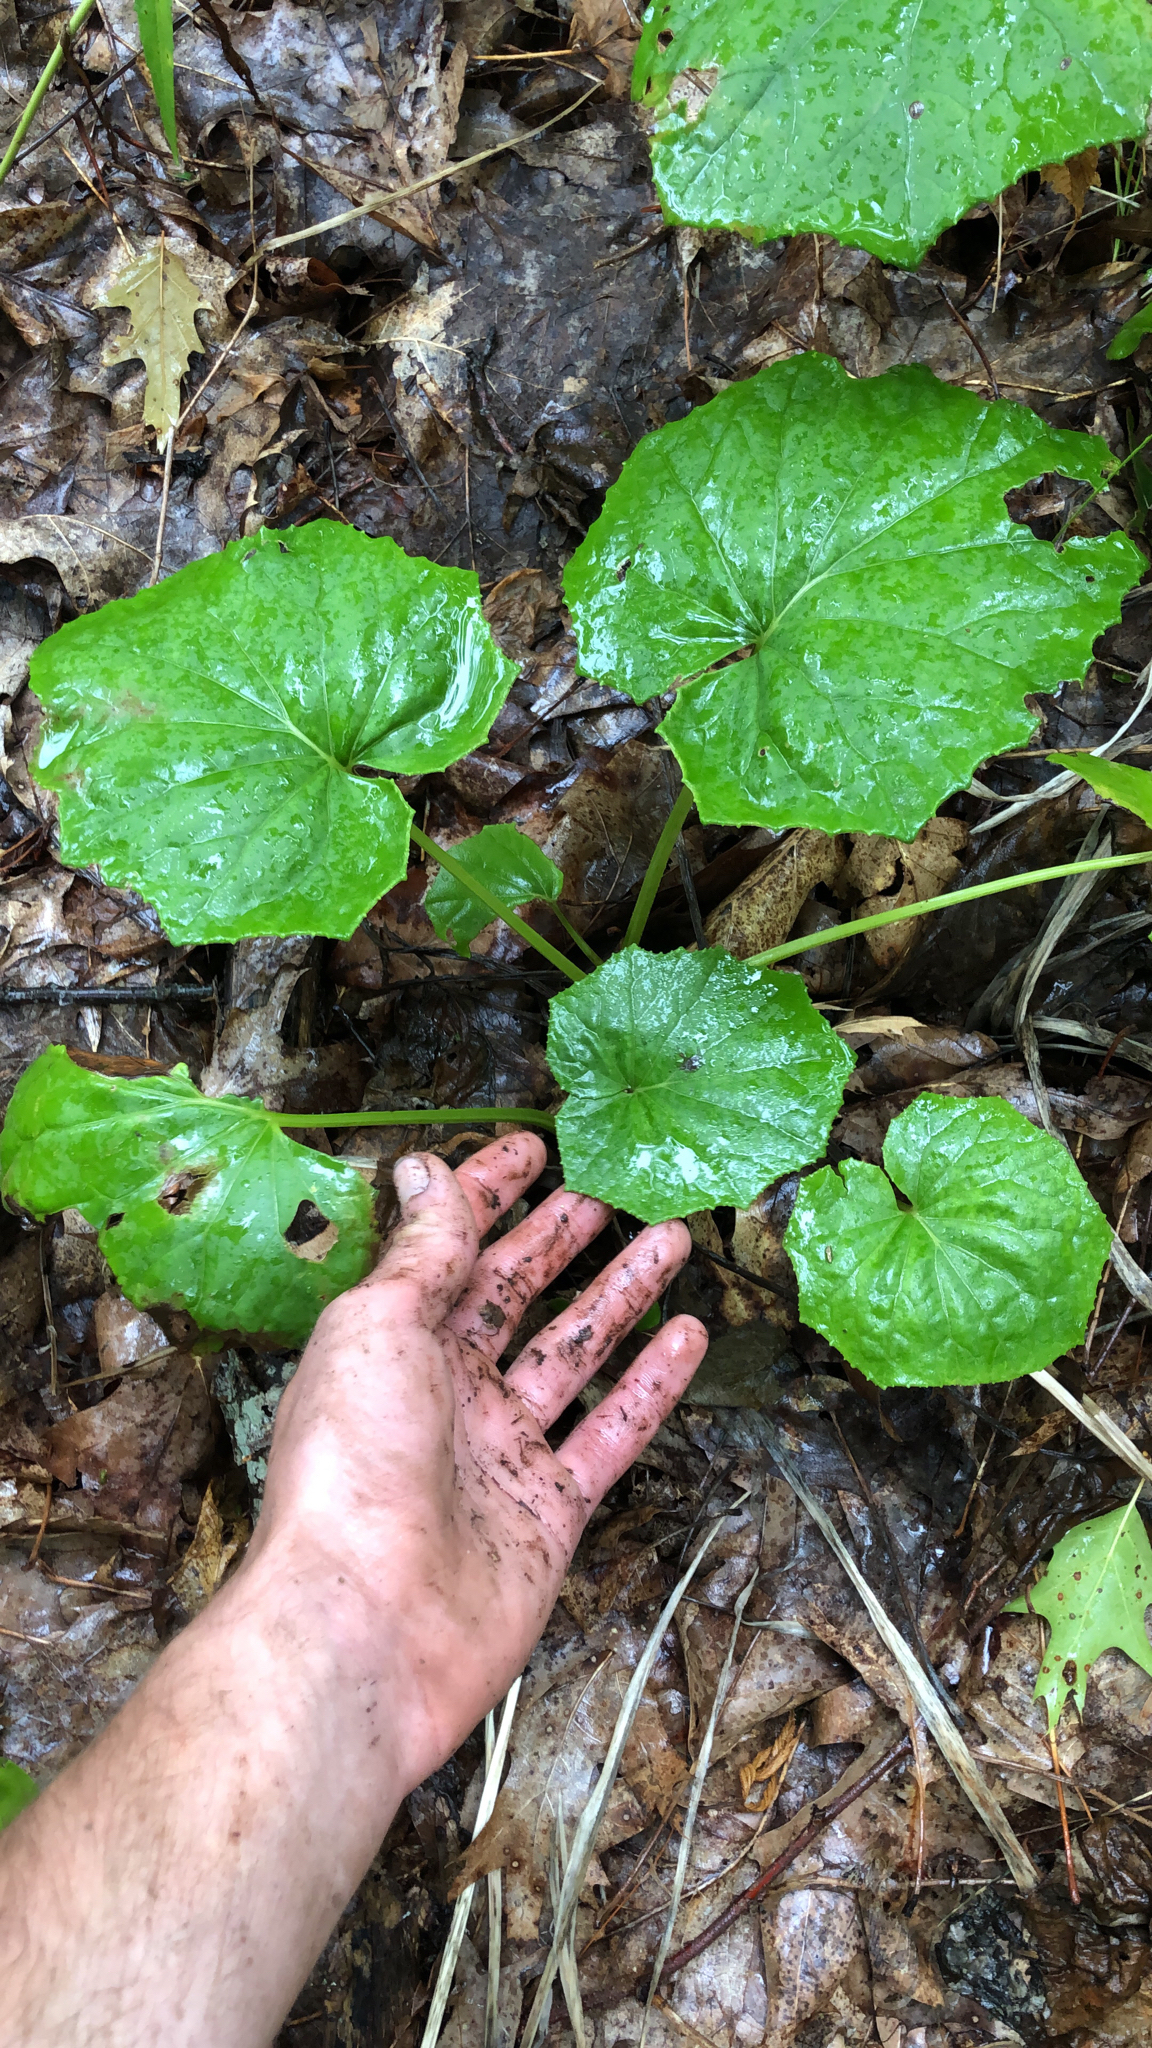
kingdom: Plantae
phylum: Tracheophyta
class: Magnoliopsida
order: Asterales
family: Asteraceae
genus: Tussilago
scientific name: Tussilago farfara
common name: Coltsfoot
